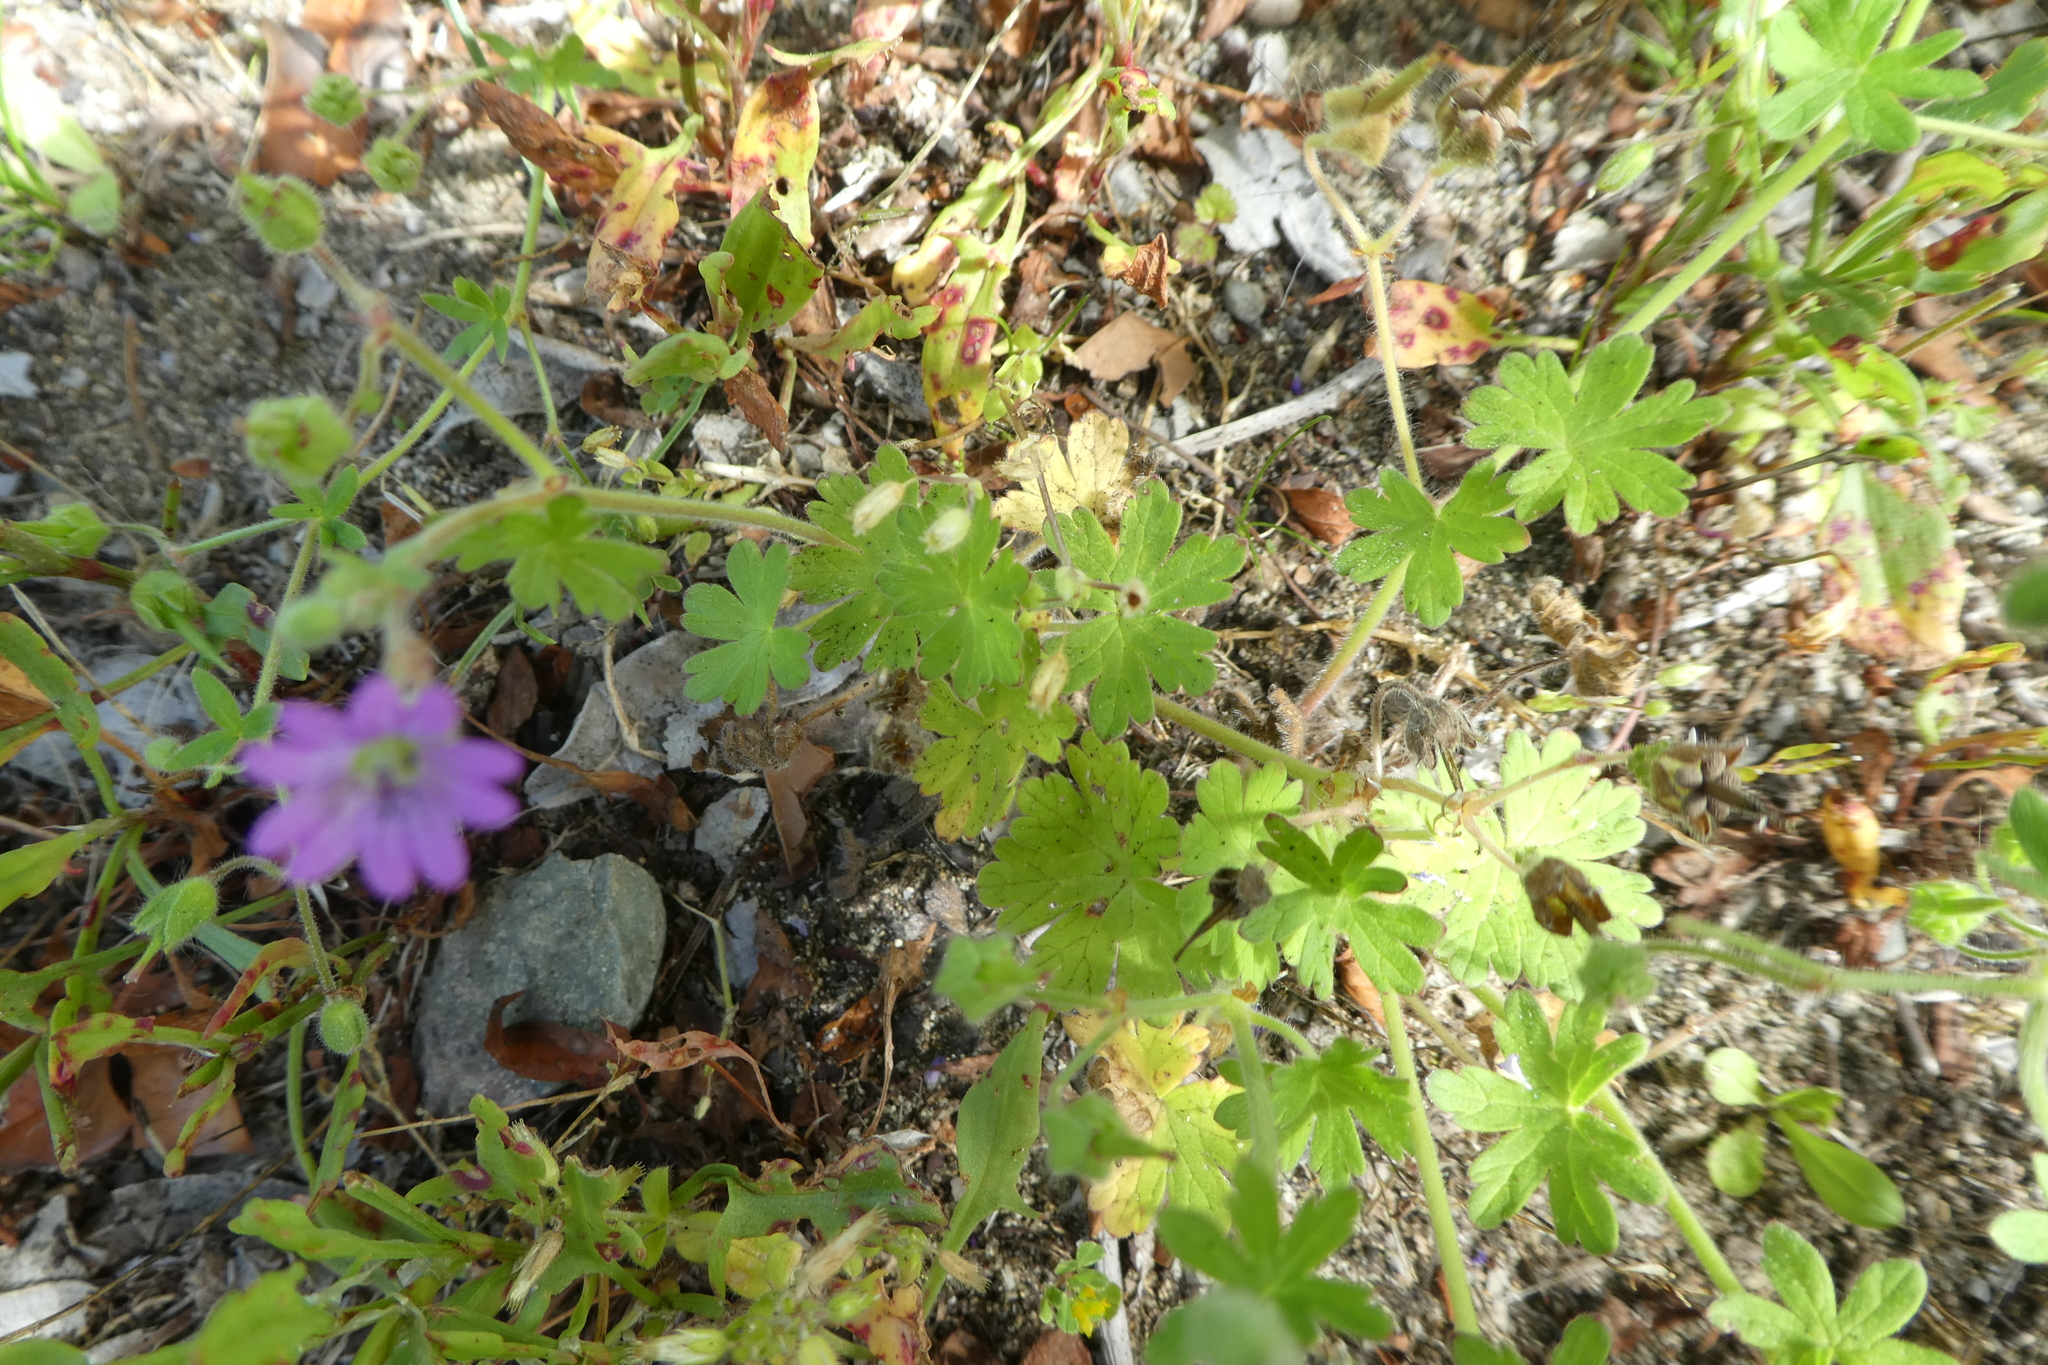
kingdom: Plantae
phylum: Tracheophyta
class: Magnoliopsida
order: Geraniales
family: Geraniaceae
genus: Geranium
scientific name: Geranium molle
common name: Dove's-foot crane's-bill
